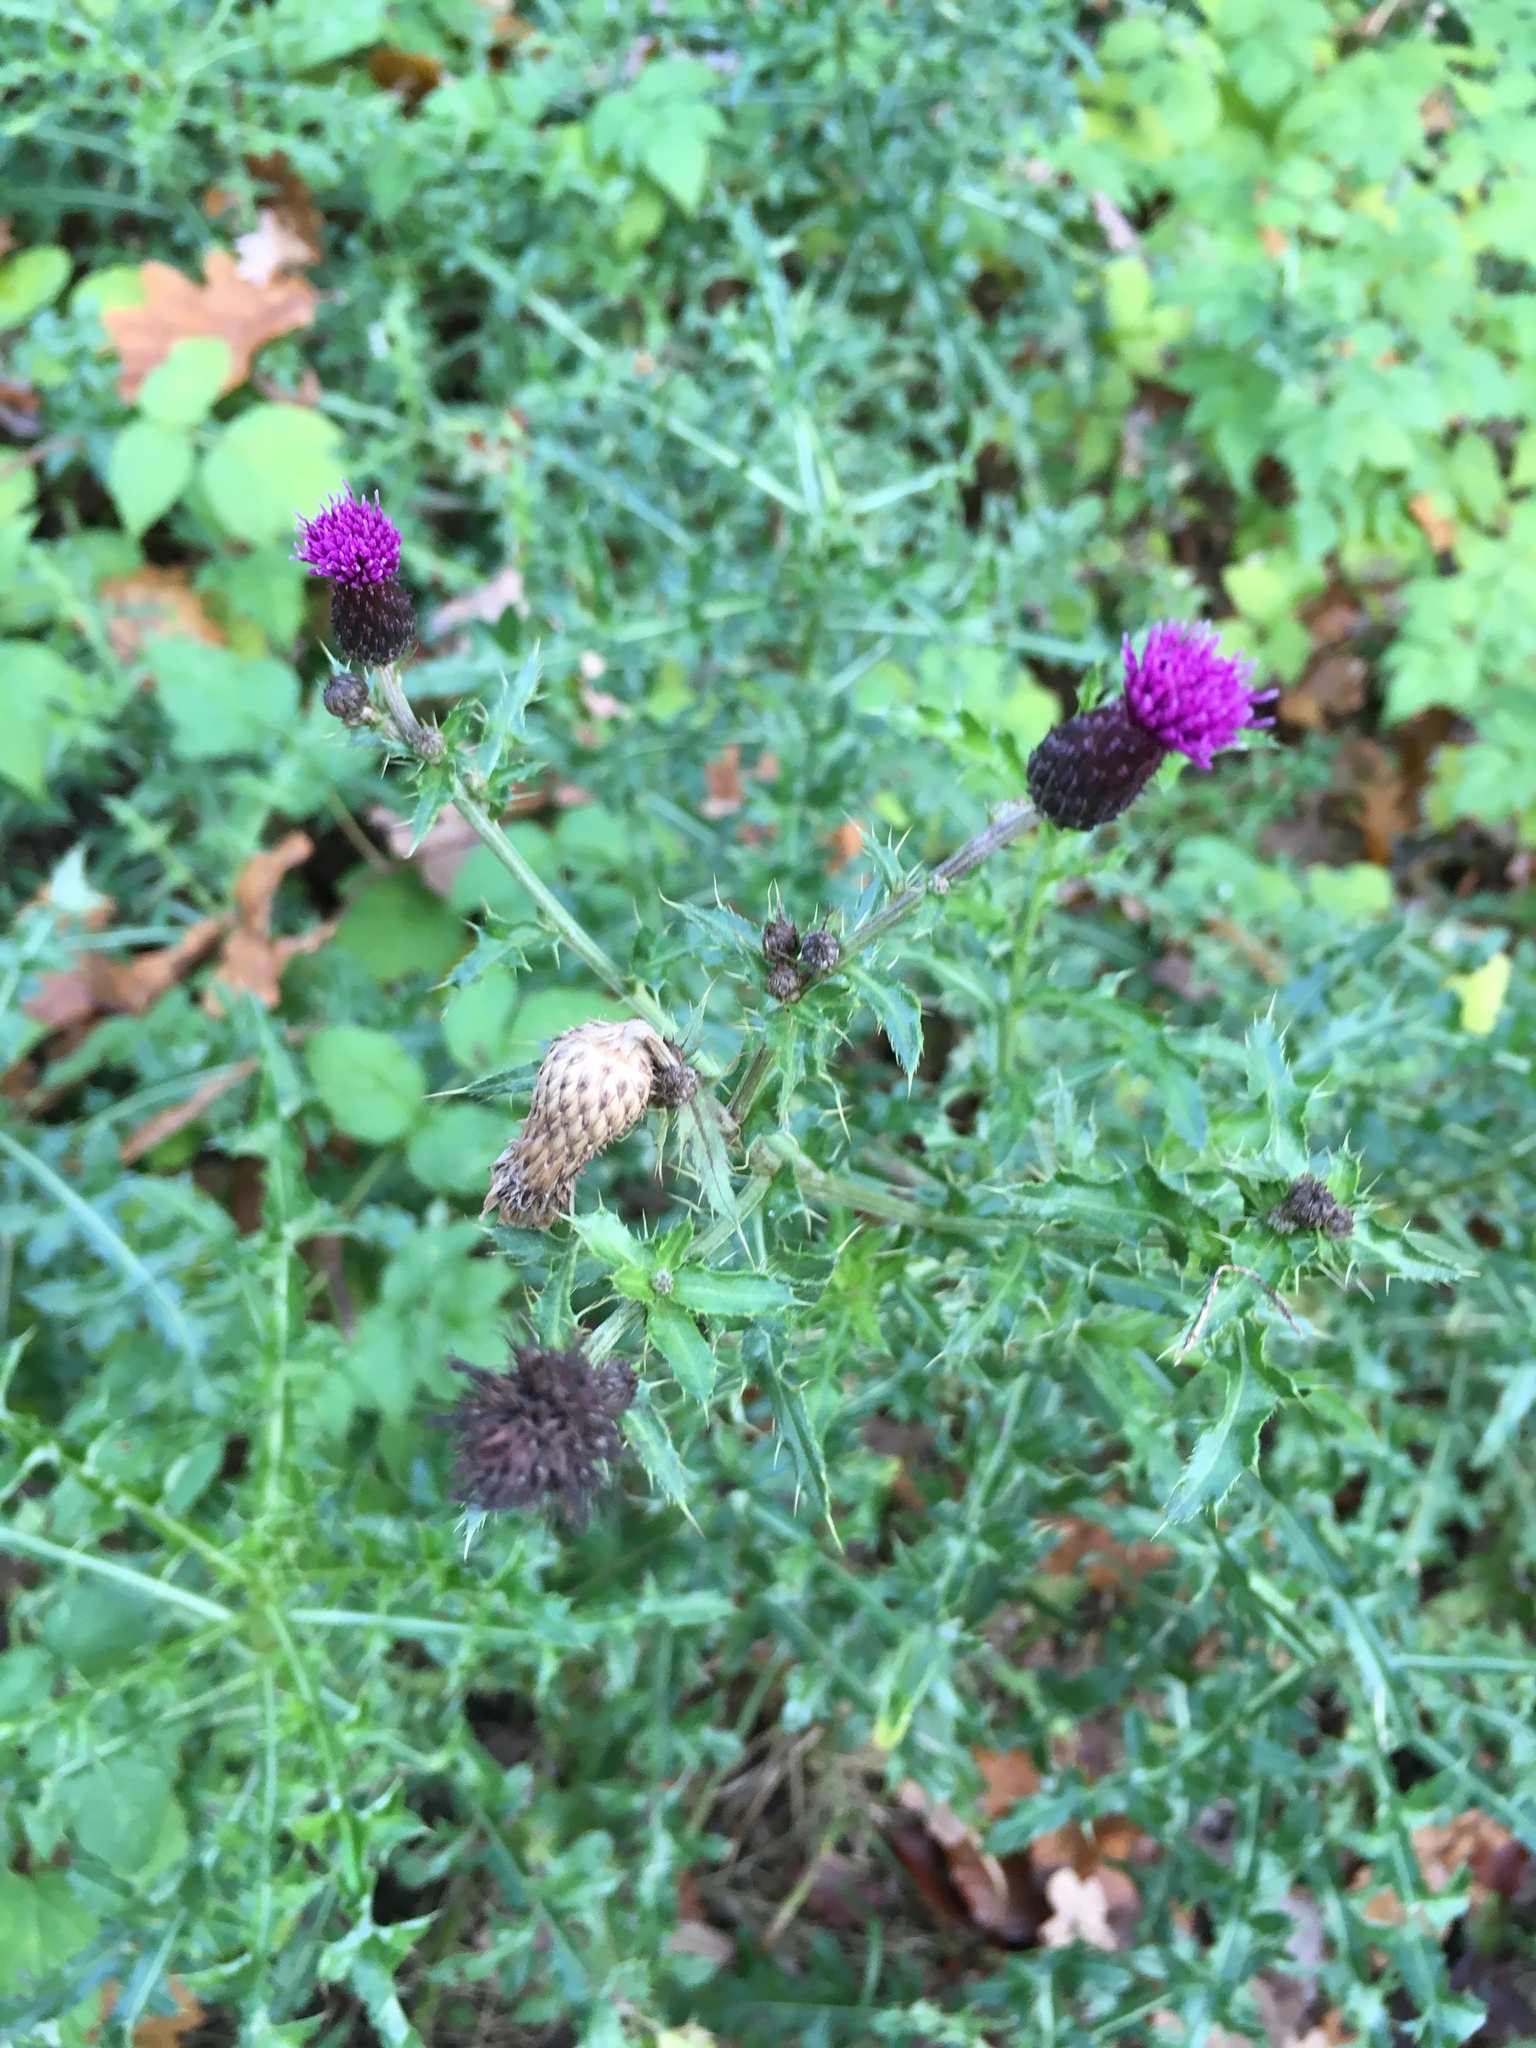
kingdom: Plantae
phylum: Tracheophyta
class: Magnoliopsida
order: Asterales
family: Asteraceae
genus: Cirsium
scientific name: Cirsium arvense
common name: Creeping thistle
